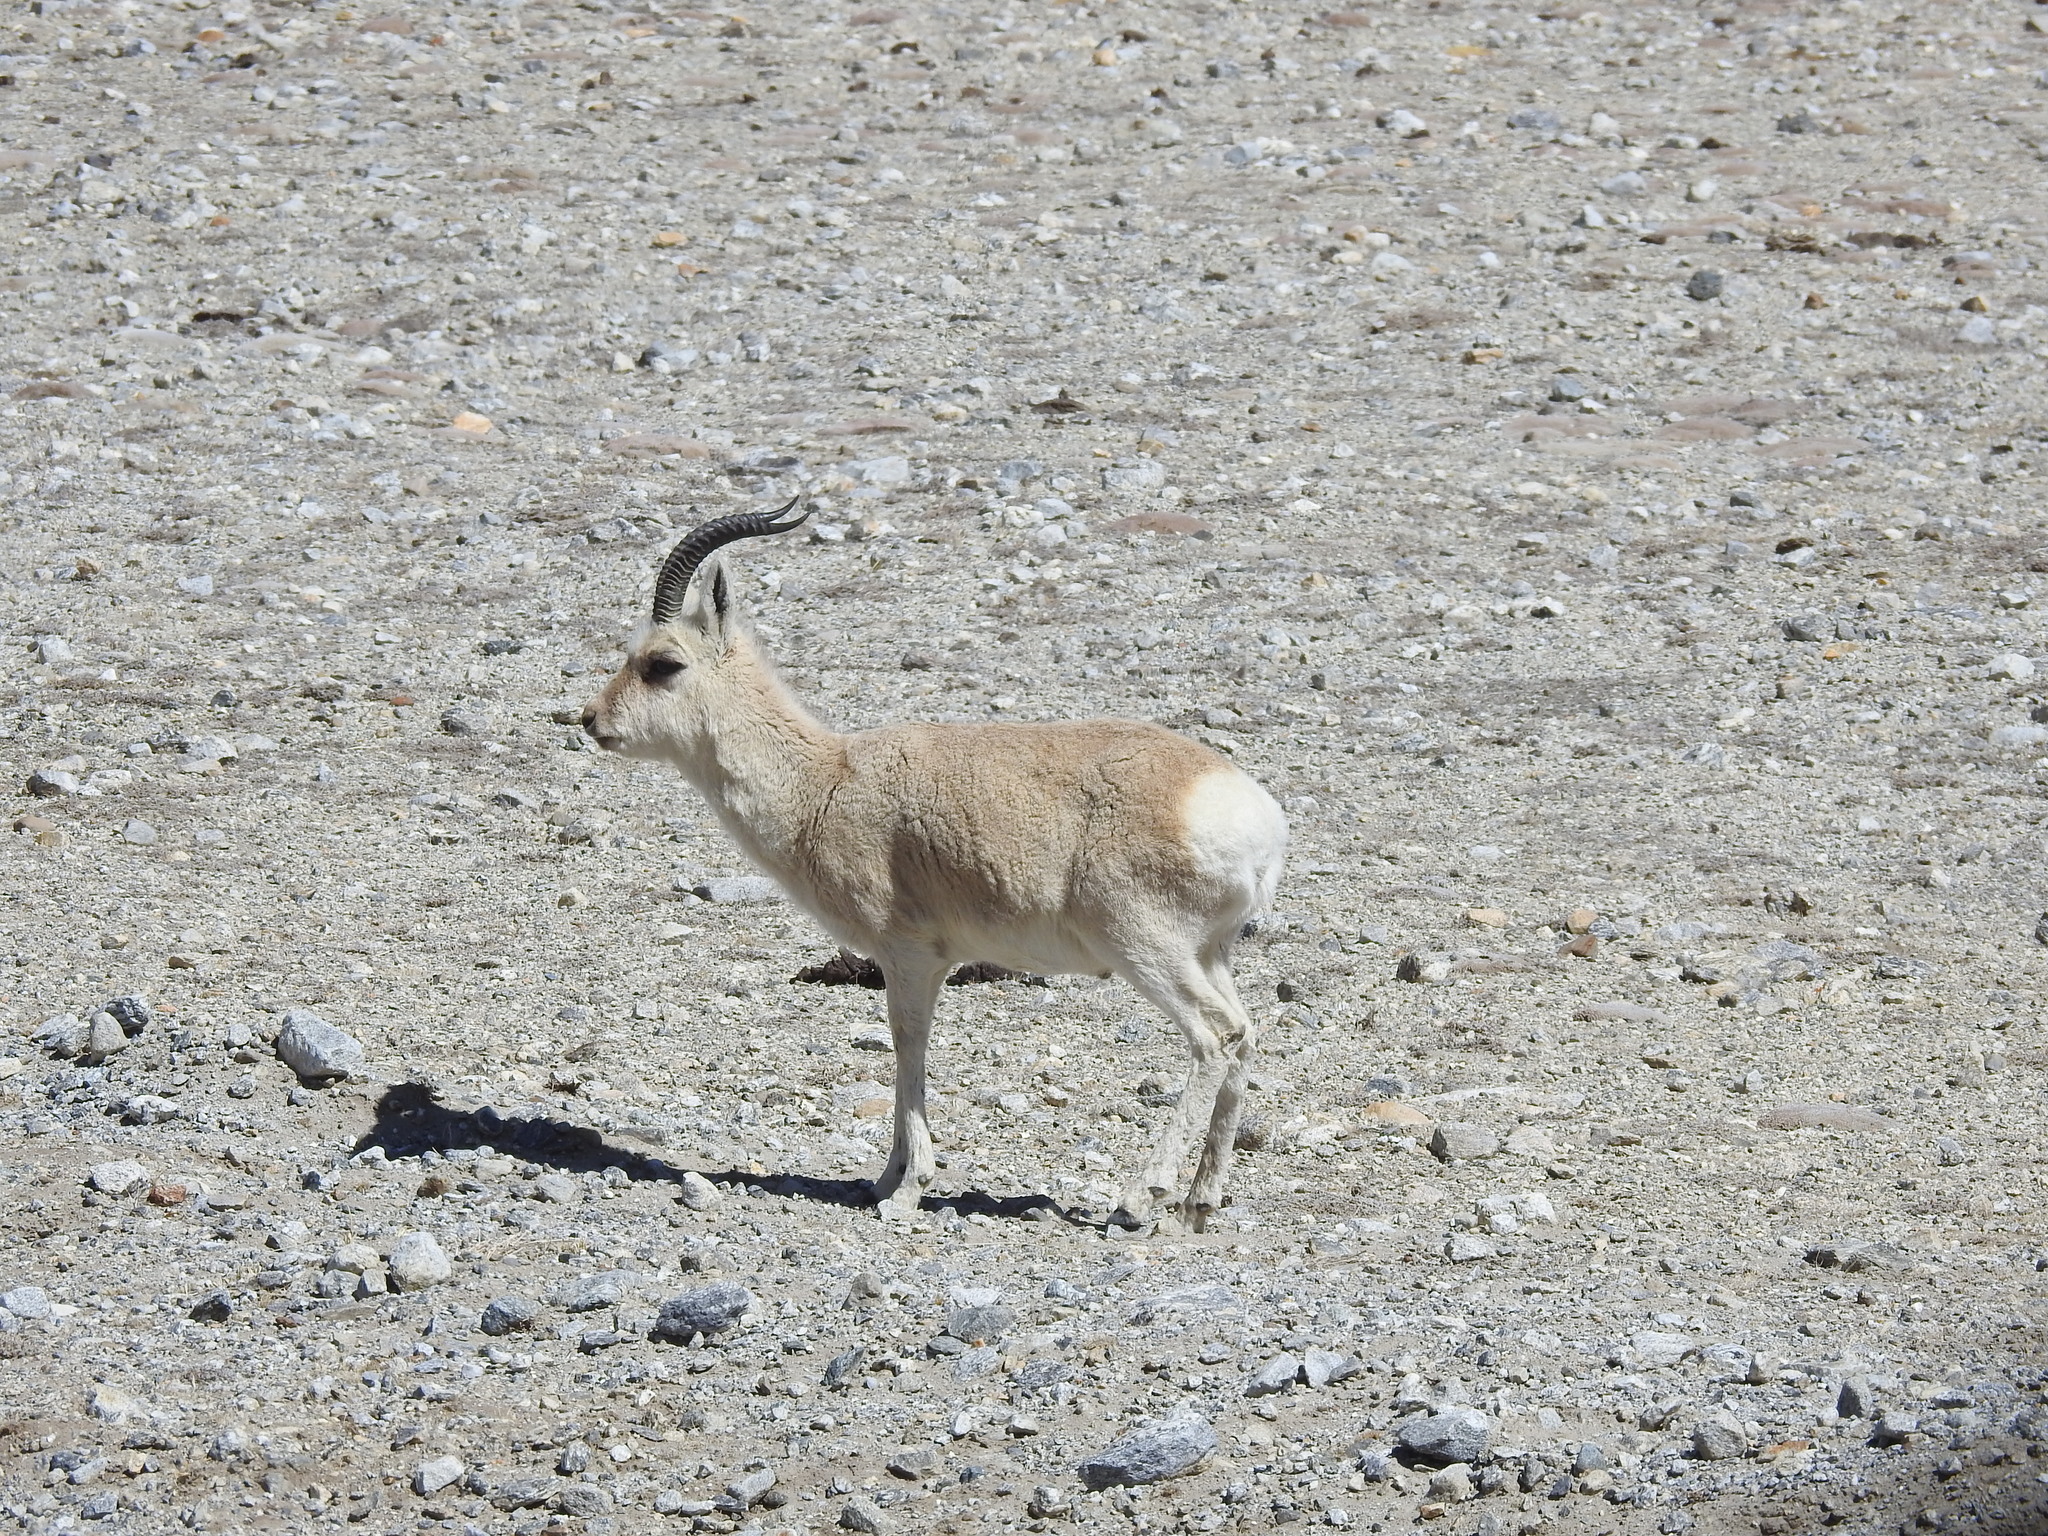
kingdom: Animalia
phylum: Chordata
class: Mammalia
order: Artiodactyla
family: Bovidae
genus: Procapra
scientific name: Procapra picticaudata
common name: Tibetan gazelle
